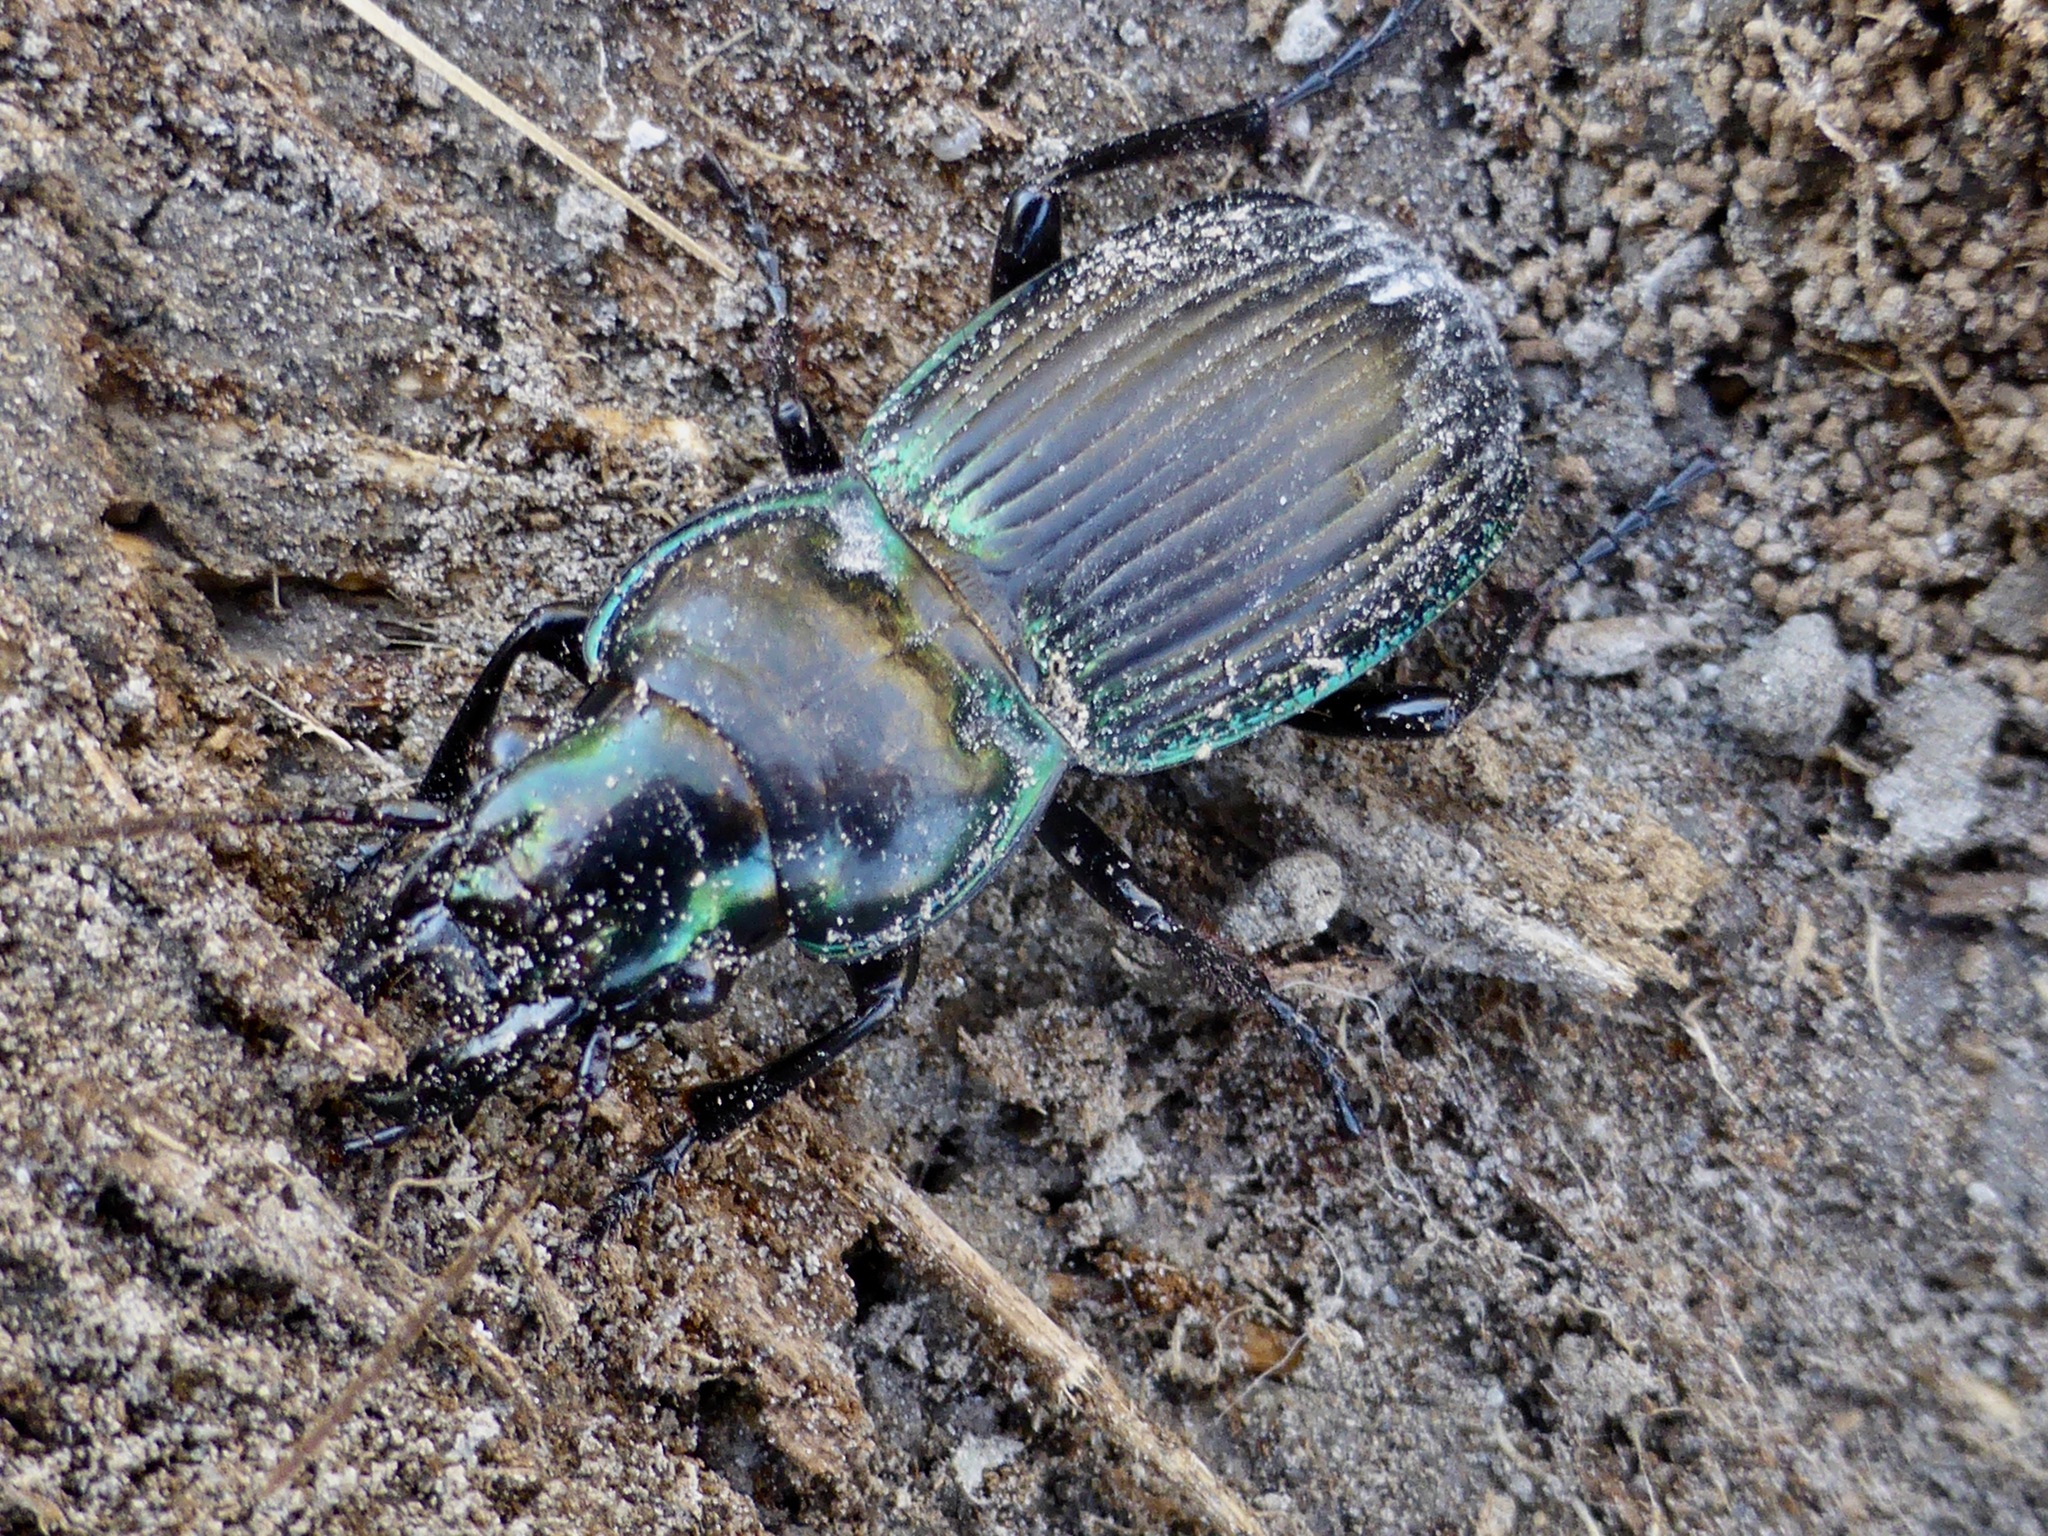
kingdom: Animalia
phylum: Arthropoda
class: Insecta
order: Coleoptera
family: Carabidae
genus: Megadromus
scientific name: Megadromus antarcticus
